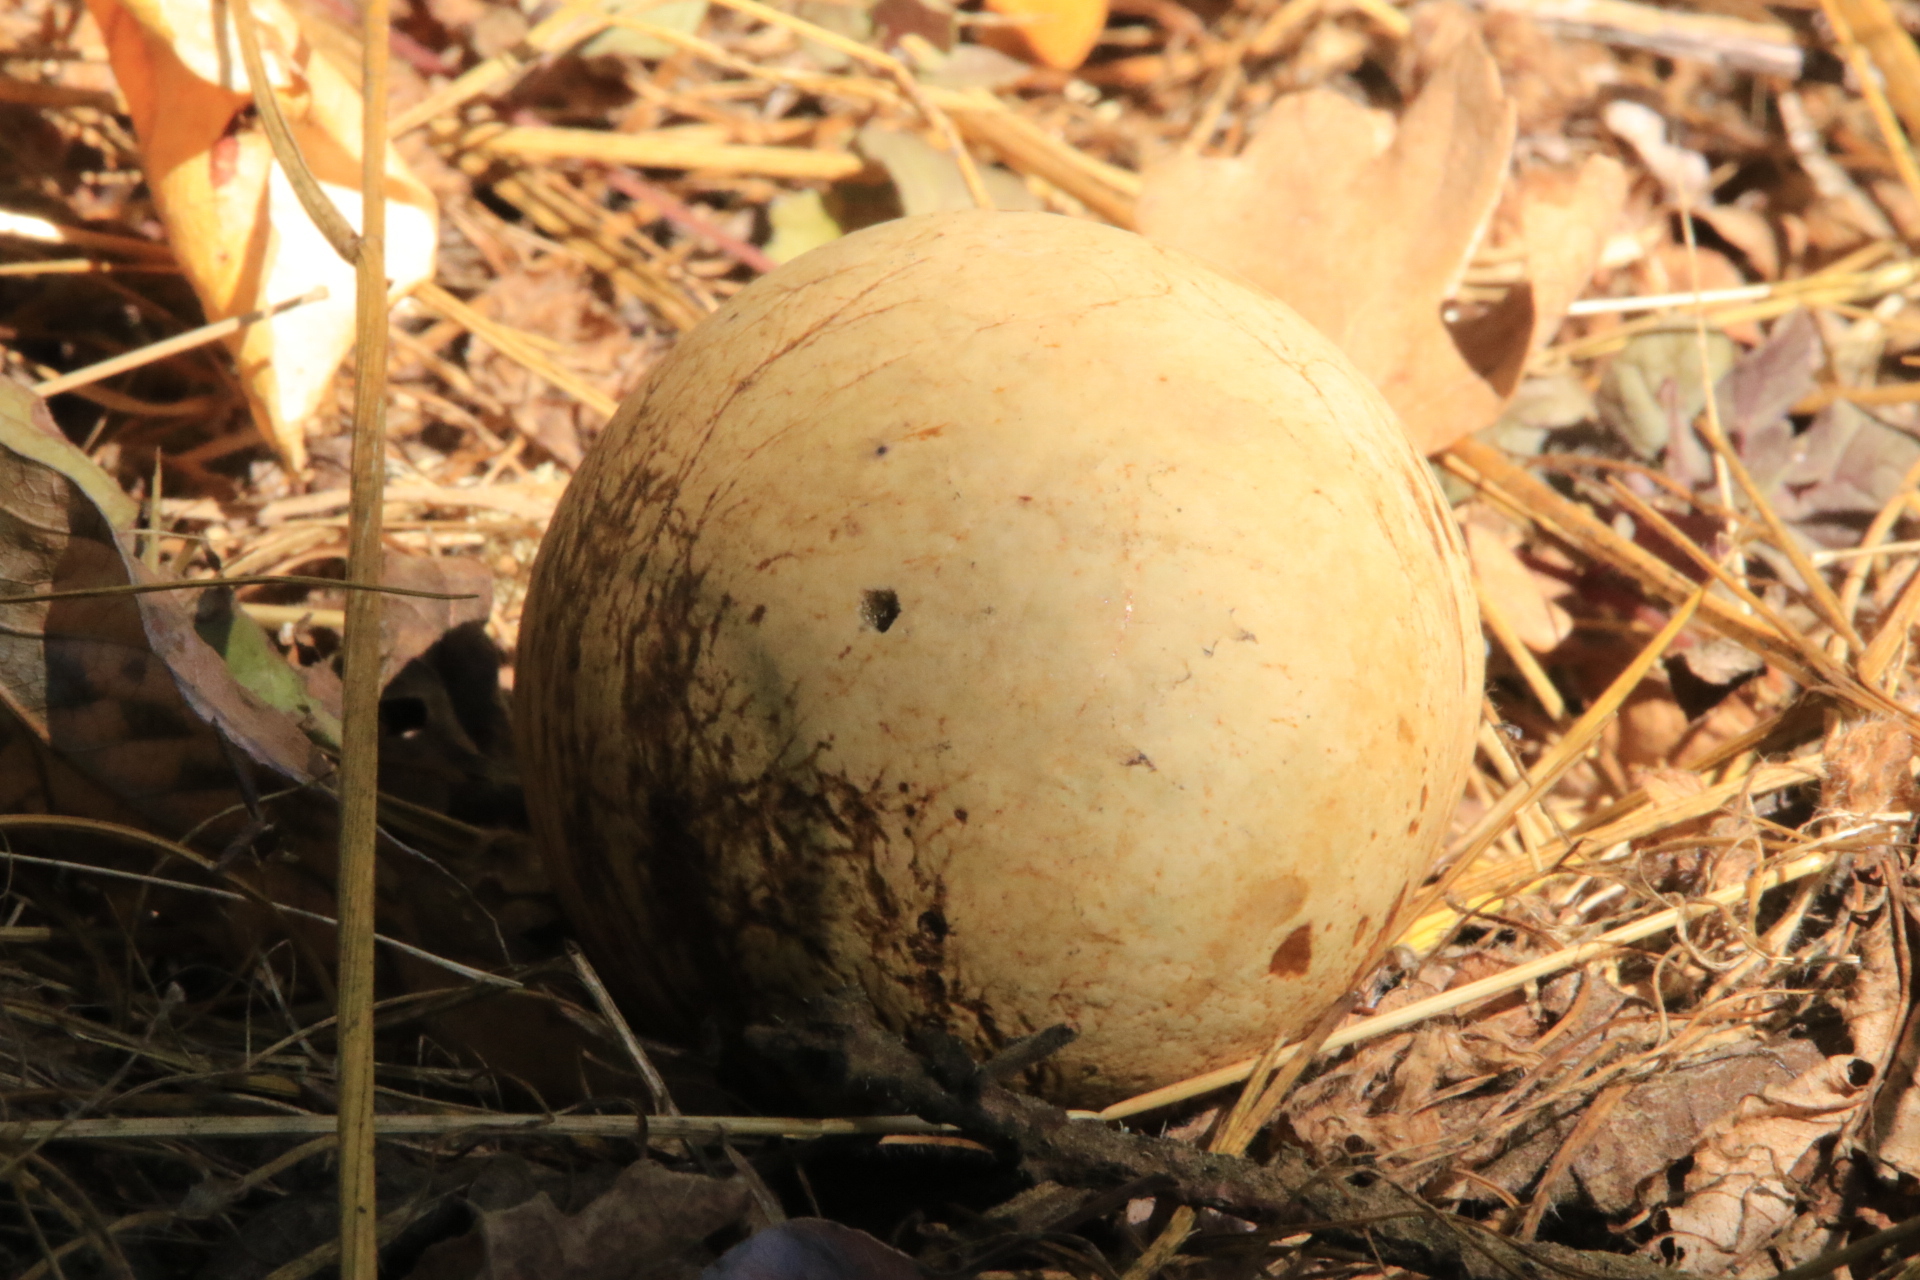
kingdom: Animalia
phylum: Arthropoda
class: Insecta
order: Hymenoptera
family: Cynipidae
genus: Andricus
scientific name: Andricus quercuscalifornicus
